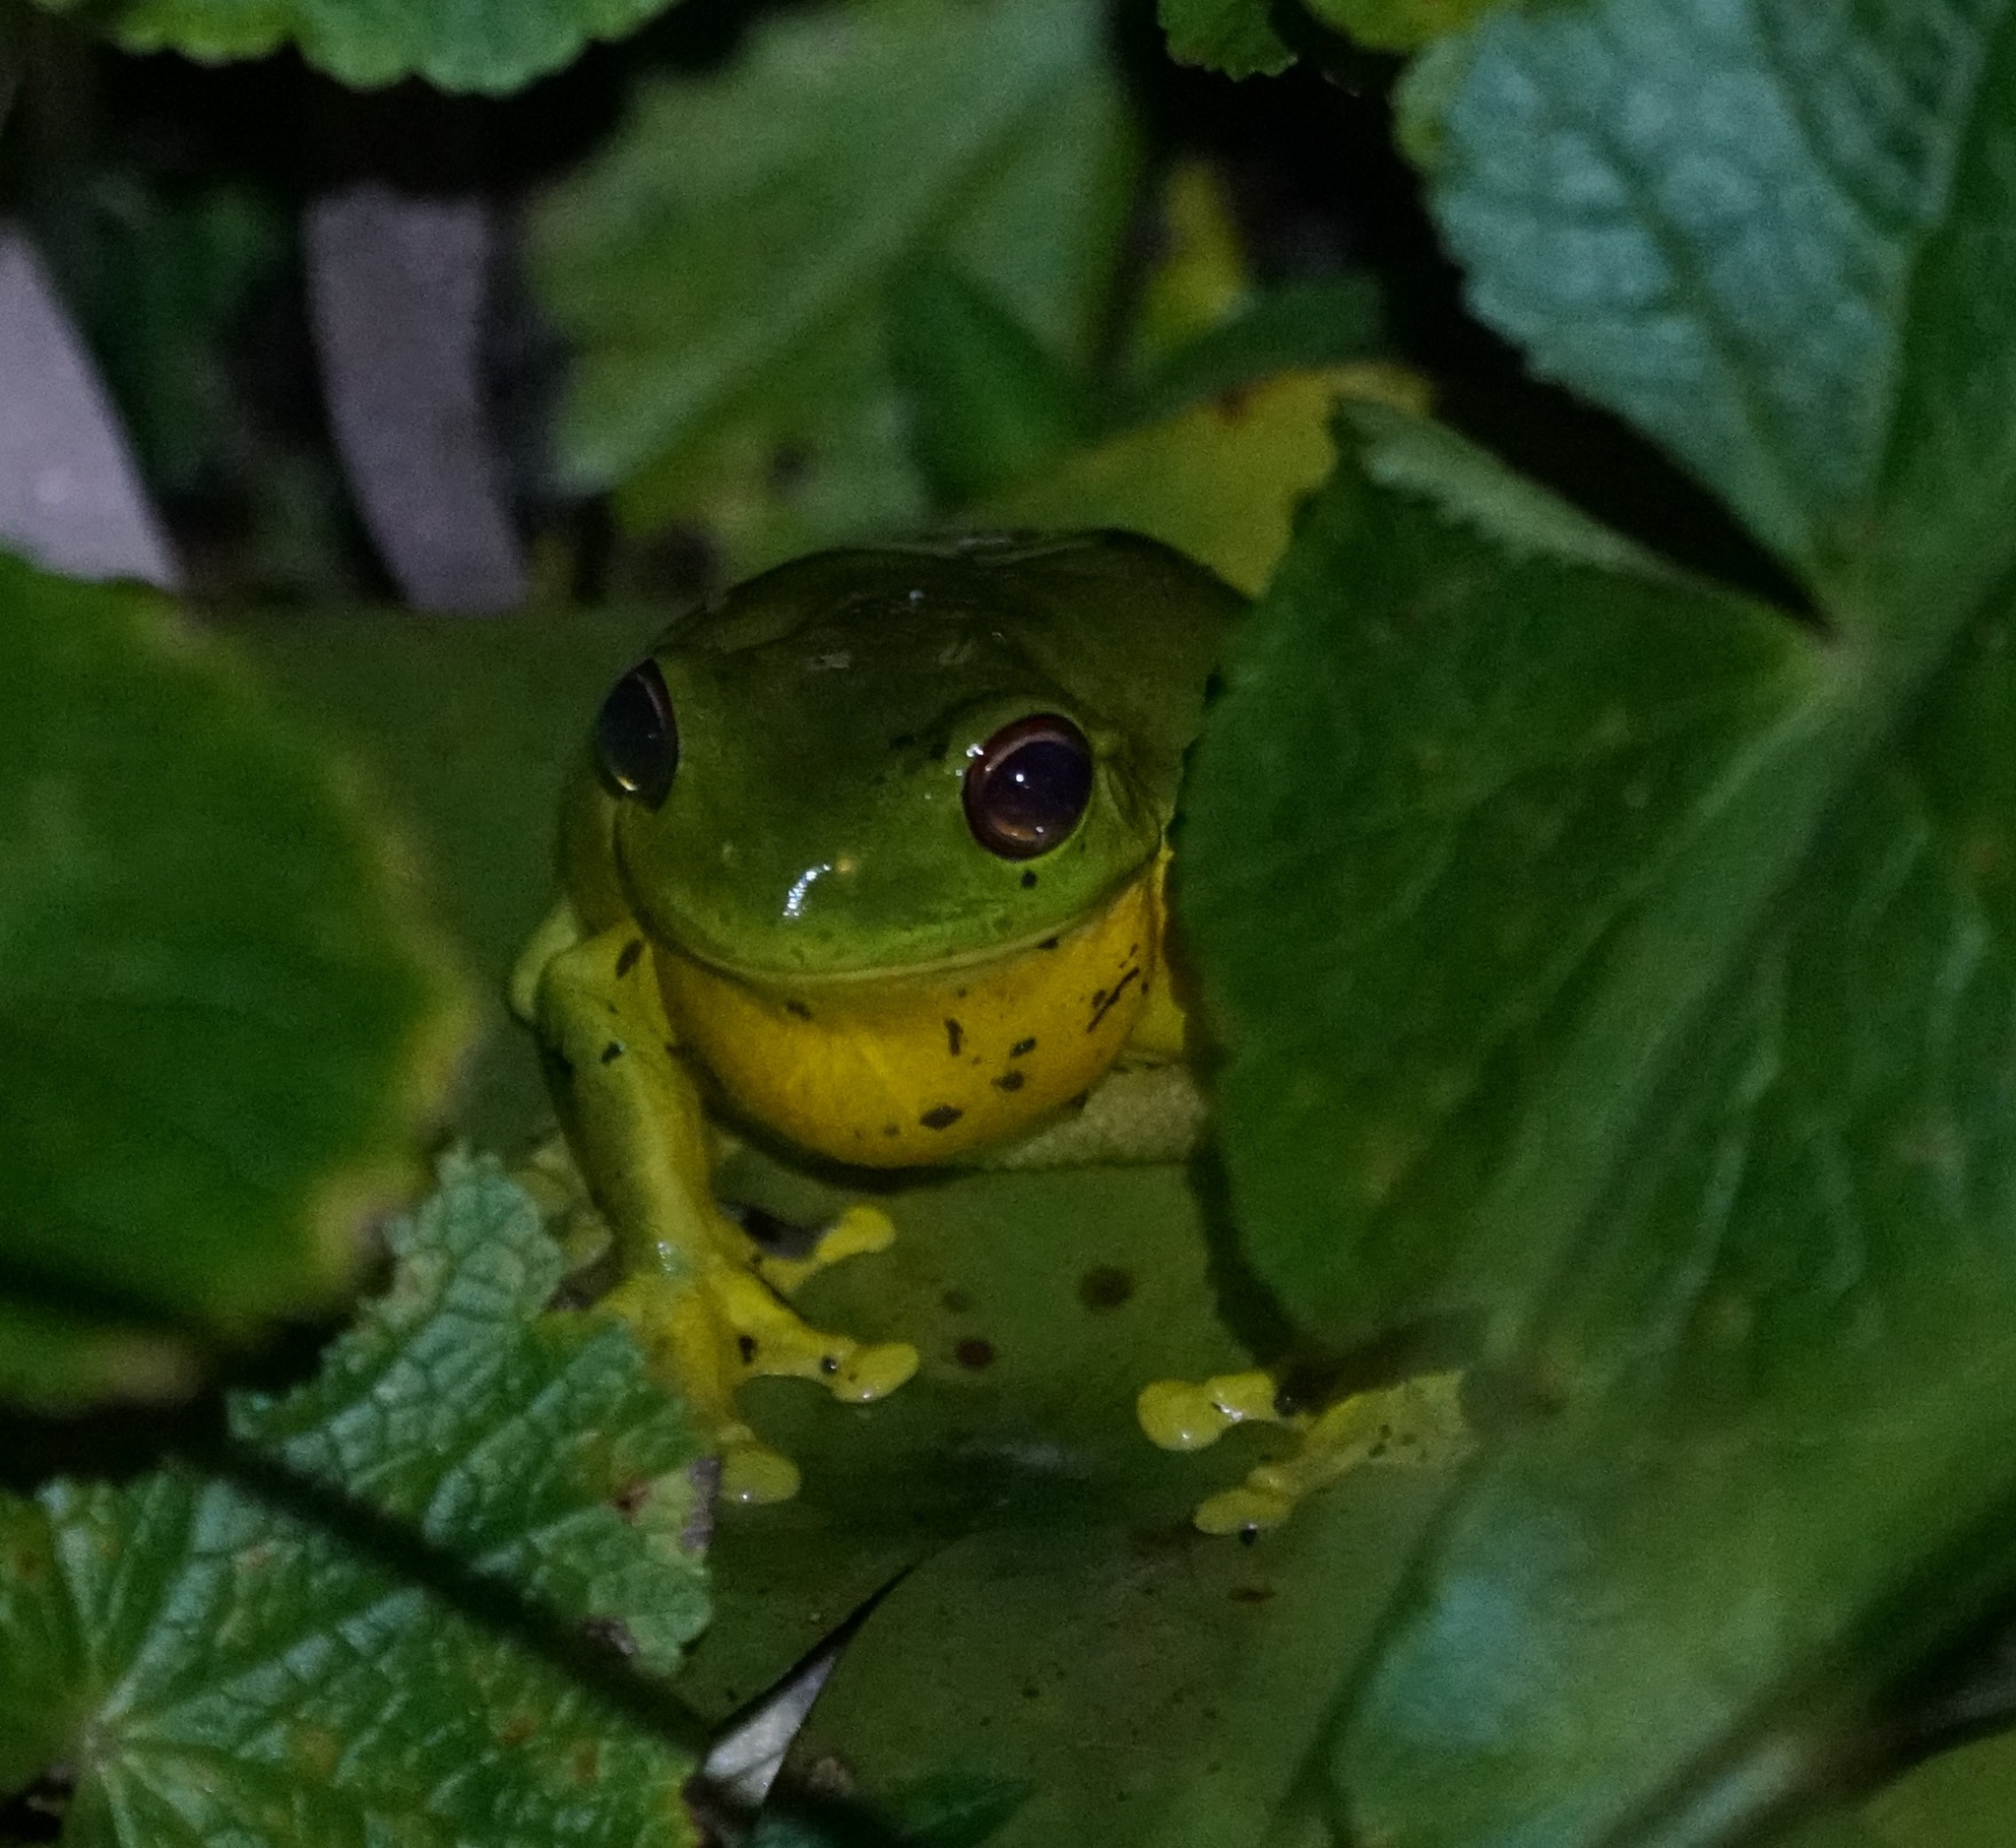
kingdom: Animalia
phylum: Chordata
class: Amphibia
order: Anura
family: Pelodryadidae
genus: Ranoidea
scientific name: Ranoidea chloris
